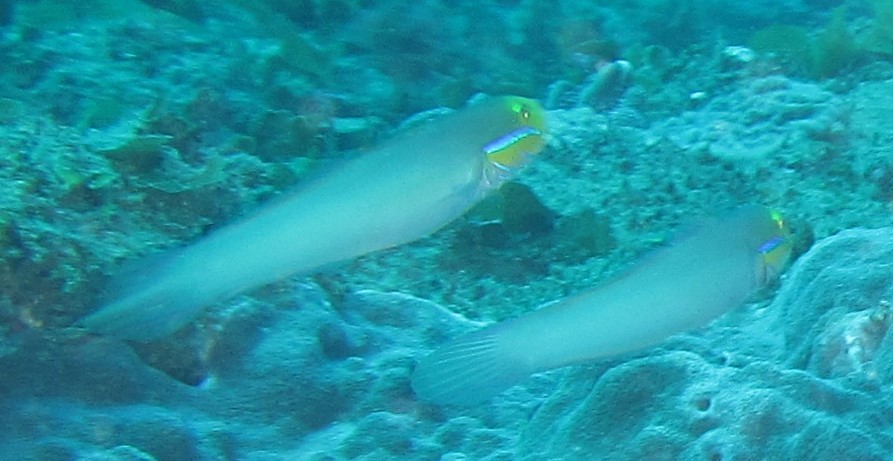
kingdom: Animalia
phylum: Chordata
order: Perciformes
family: Gobiidae
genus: Valenciennea
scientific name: Valenciennea strigata
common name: Blueband goby
